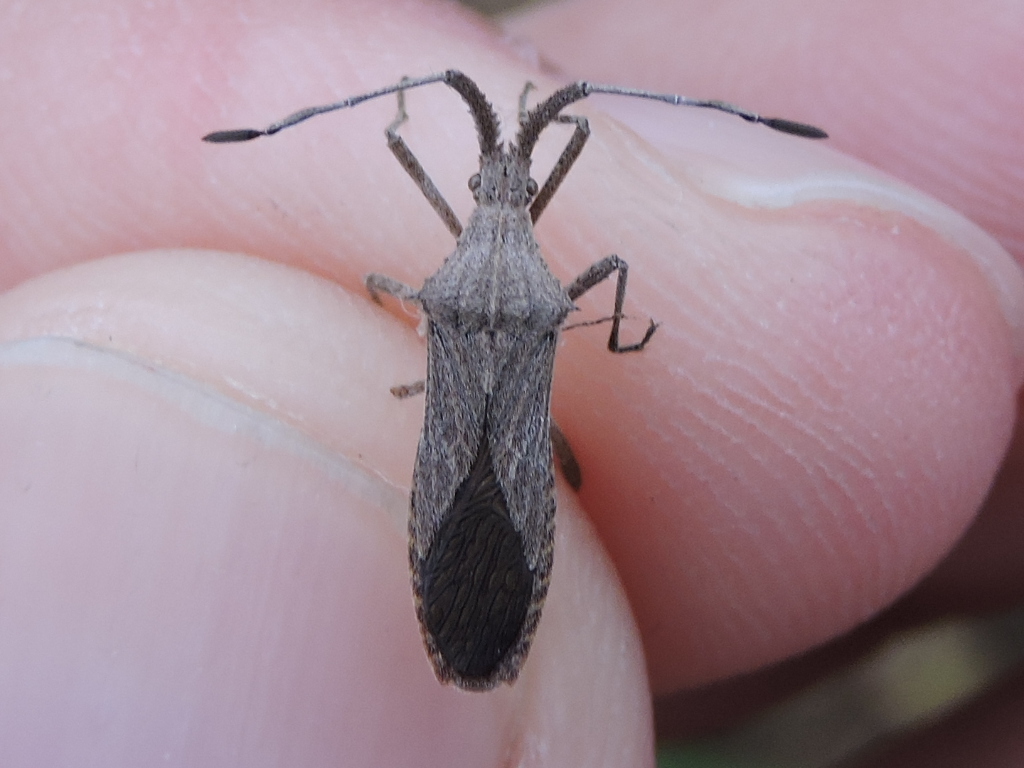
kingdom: Animalia
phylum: Arthropoda
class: Insecta
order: Hemiptera
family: Coreidae
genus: Chariesterus
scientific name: Chariesterus antennator
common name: Flat horned coreid
